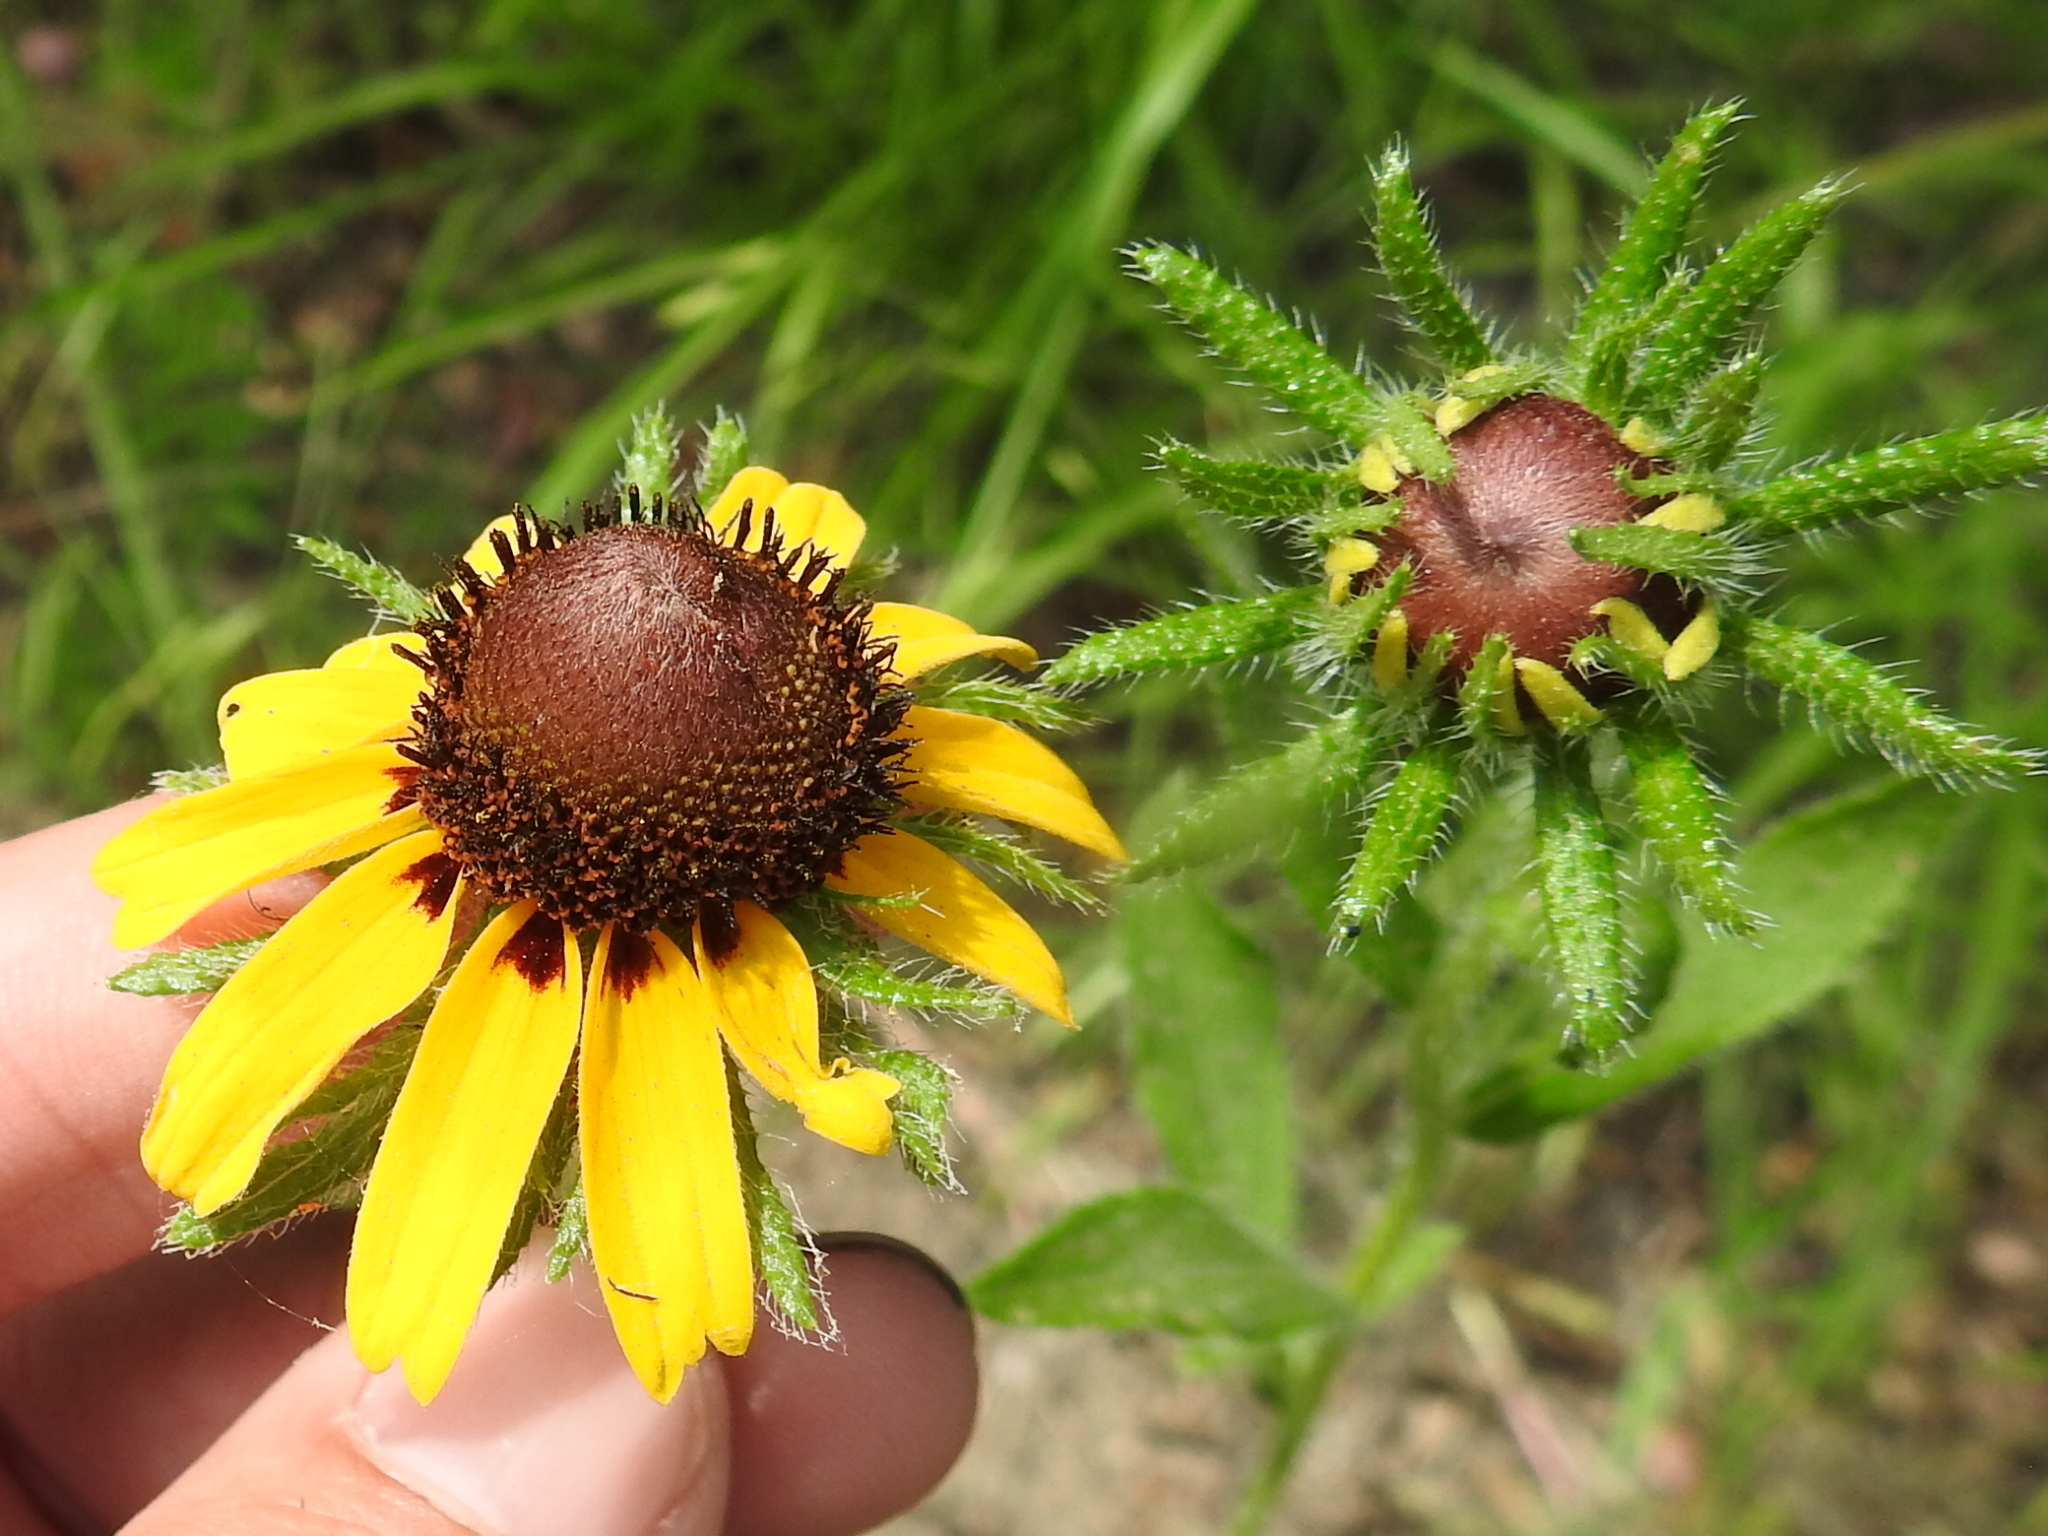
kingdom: Plantae
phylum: Tracheophyta
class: Magnoliopsida
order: Asterales
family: Asteraceae
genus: Rudbeckia
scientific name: Rudbeckia hirta
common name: Black-eyed-susan
